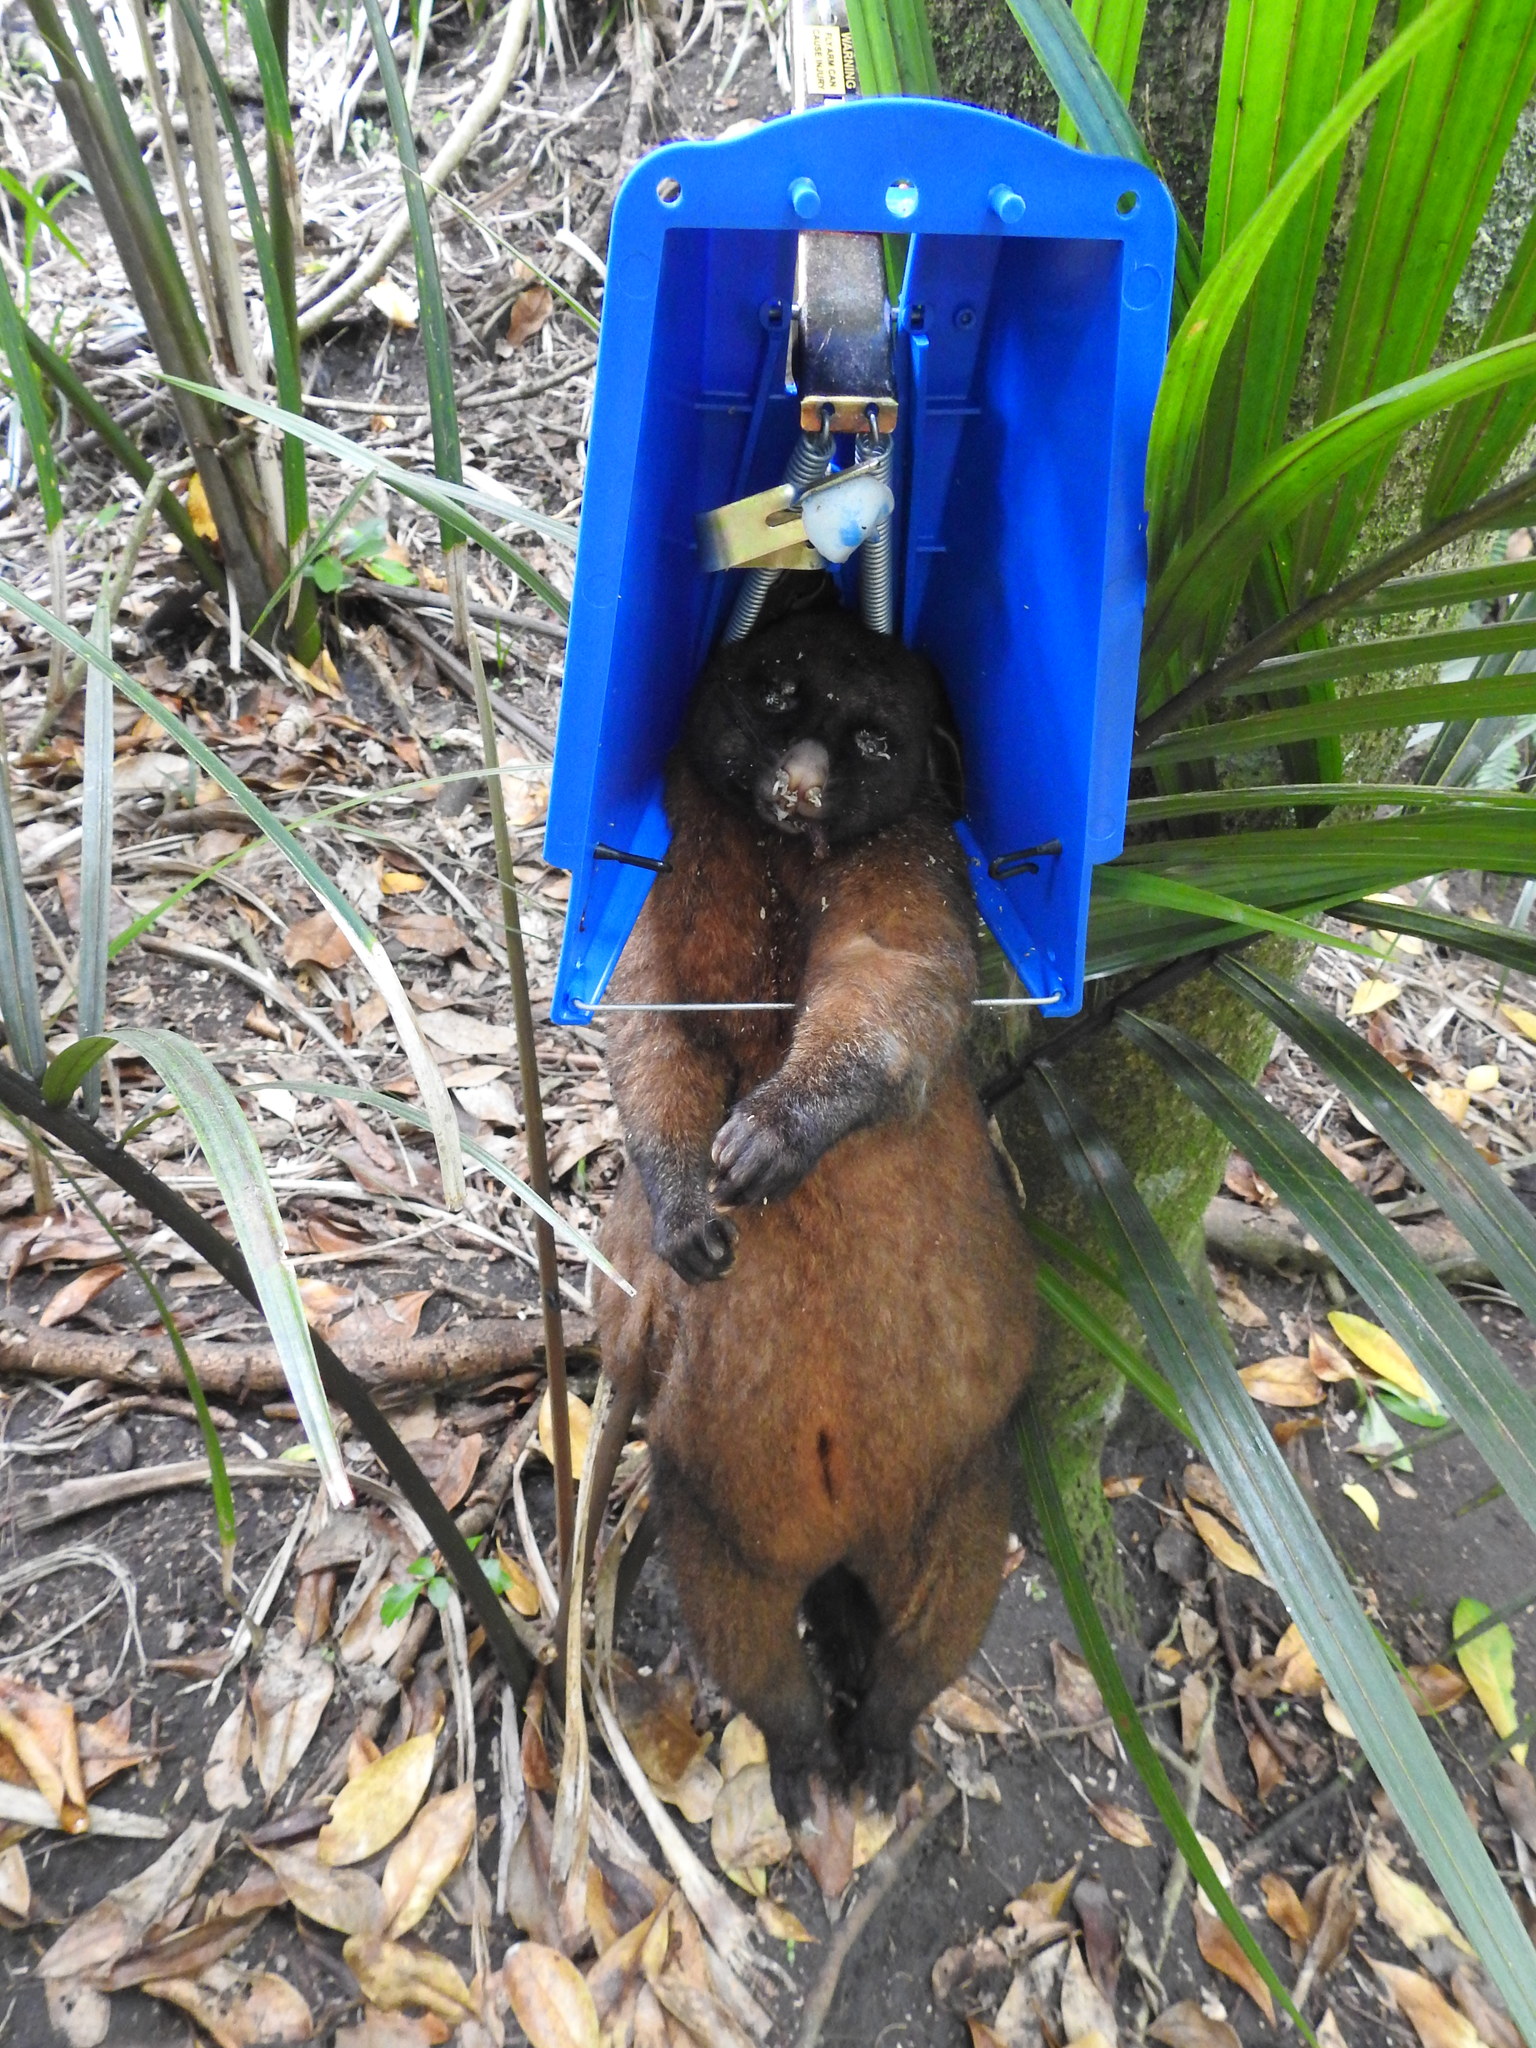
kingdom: Animalia
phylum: Chordata
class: Mammalia
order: Diprotodontia
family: Phalangeridae
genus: Trichosurus
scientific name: Trichosurus vulpecula
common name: Common brushtail
